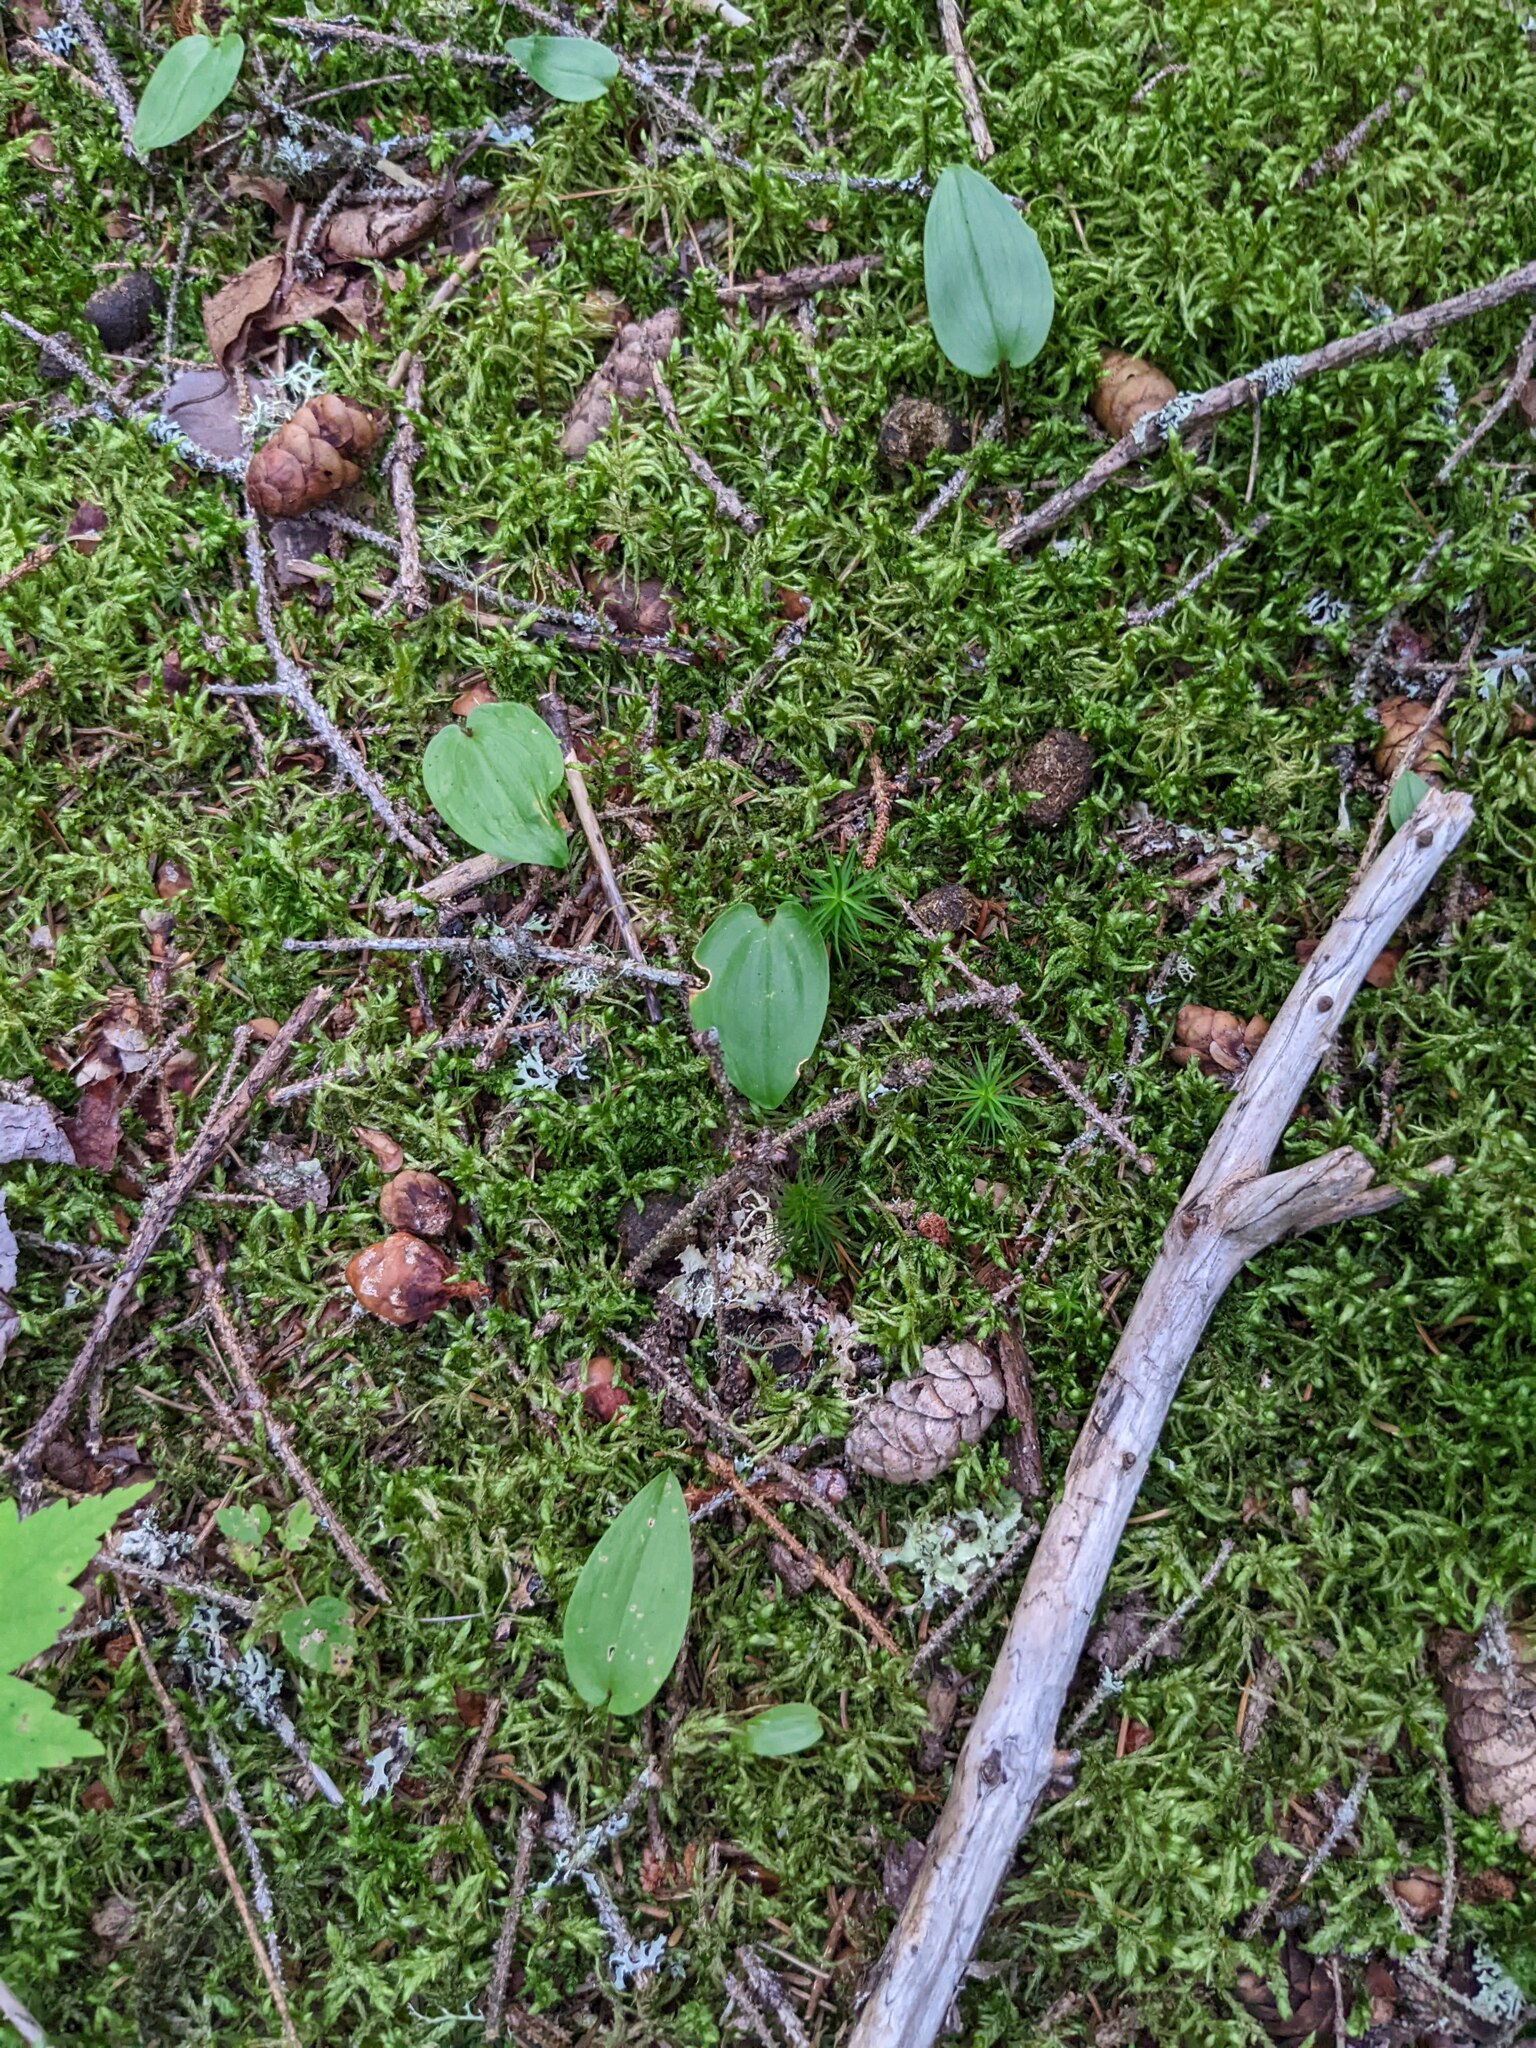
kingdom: Plantae
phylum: Tracheophyta
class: Liliopsida
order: Asparagales
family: Asparagaceae
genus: Maianthemum
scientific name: Maianthemum canadense
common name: False lily-of-the-valley
